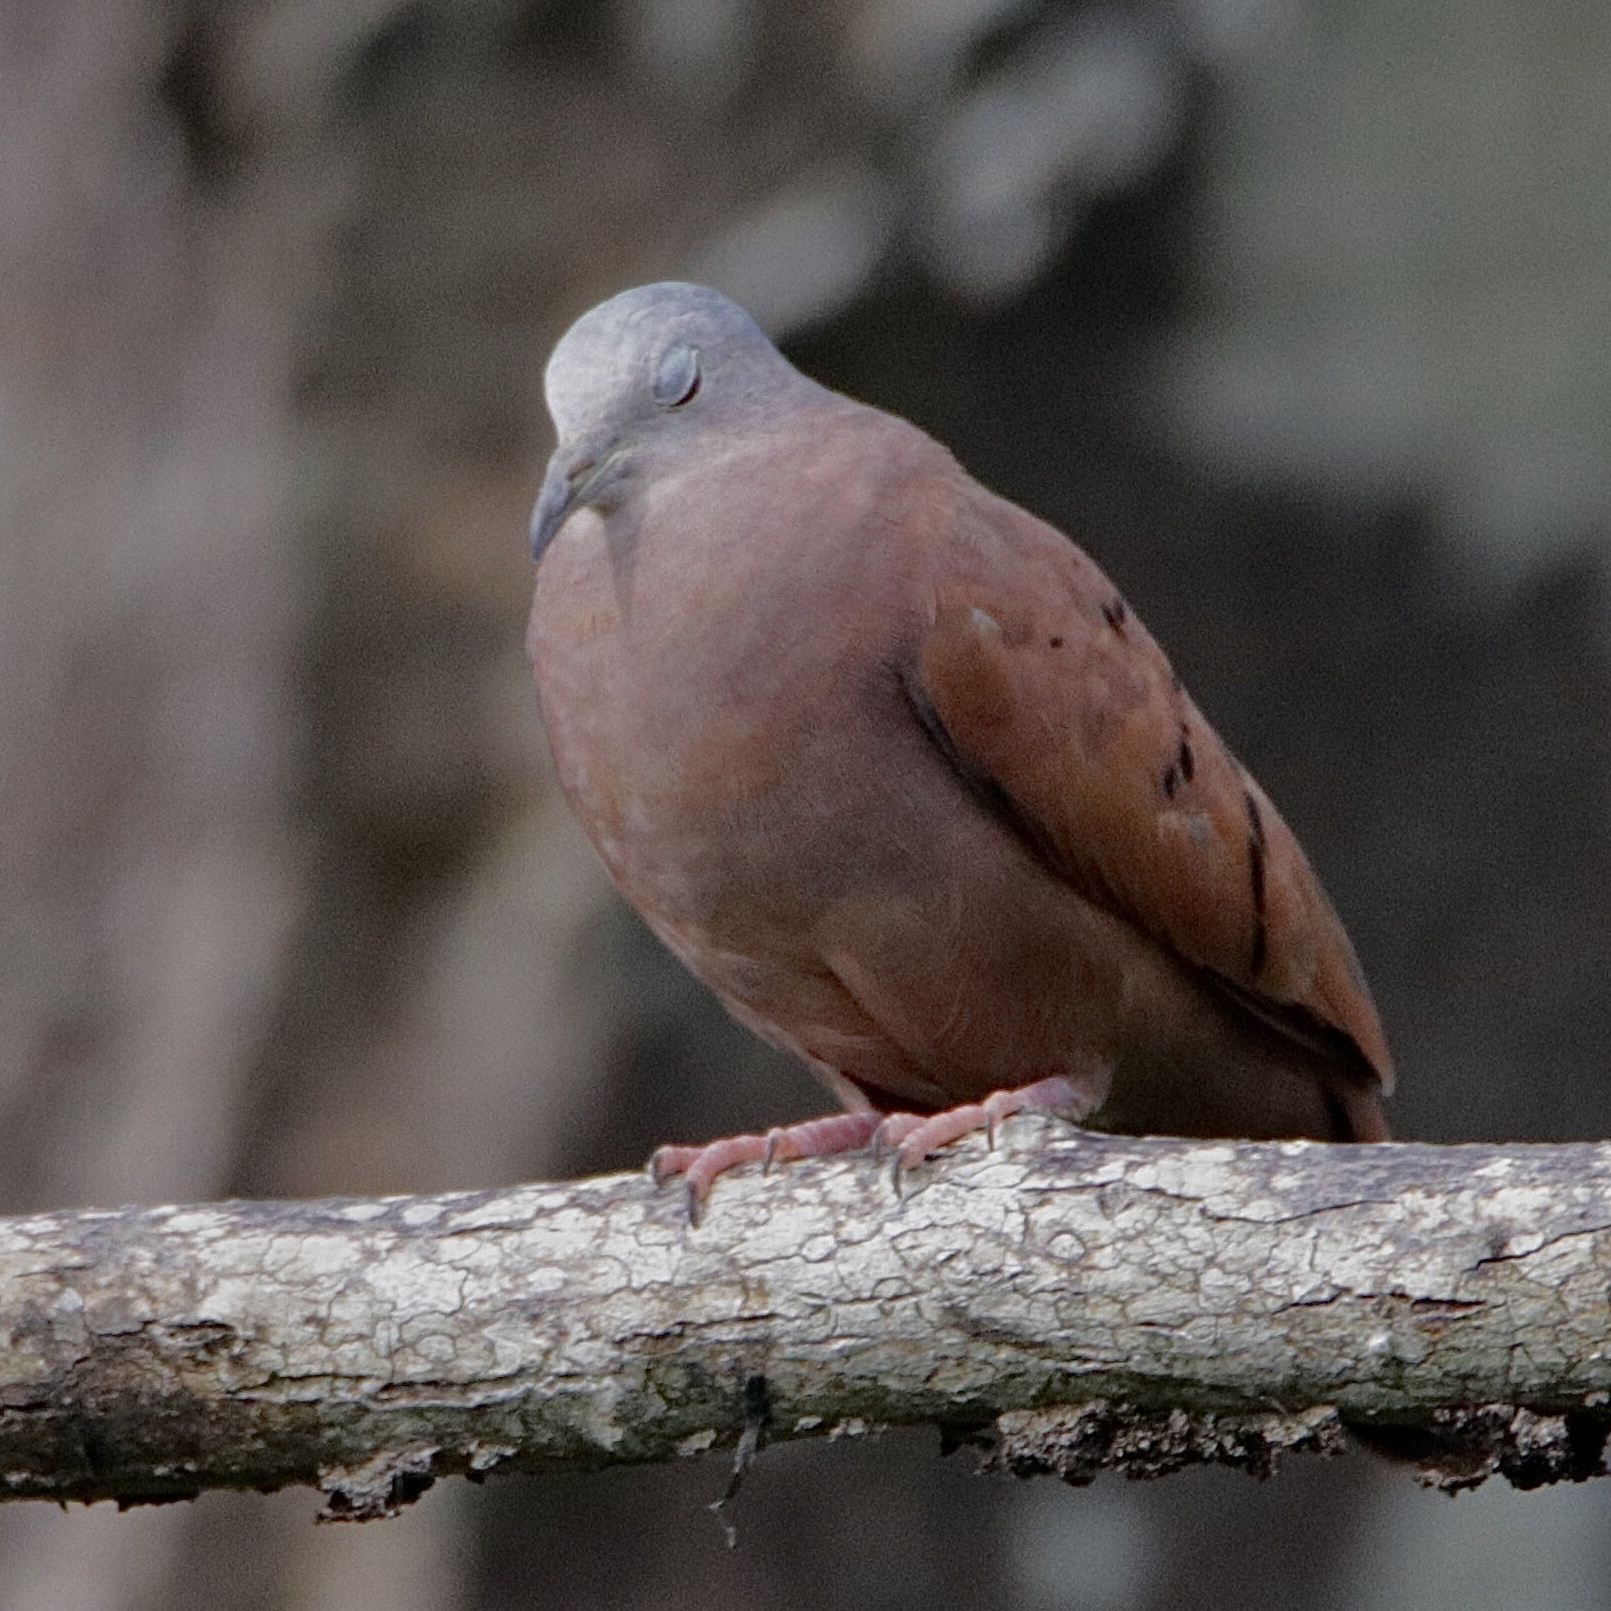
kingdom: Animalia
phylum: Chordata
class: Aves
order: Columbiformes
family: Columbidae
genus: Columbina
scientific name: Columbina talpacoti
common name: Ruddy ground dove
